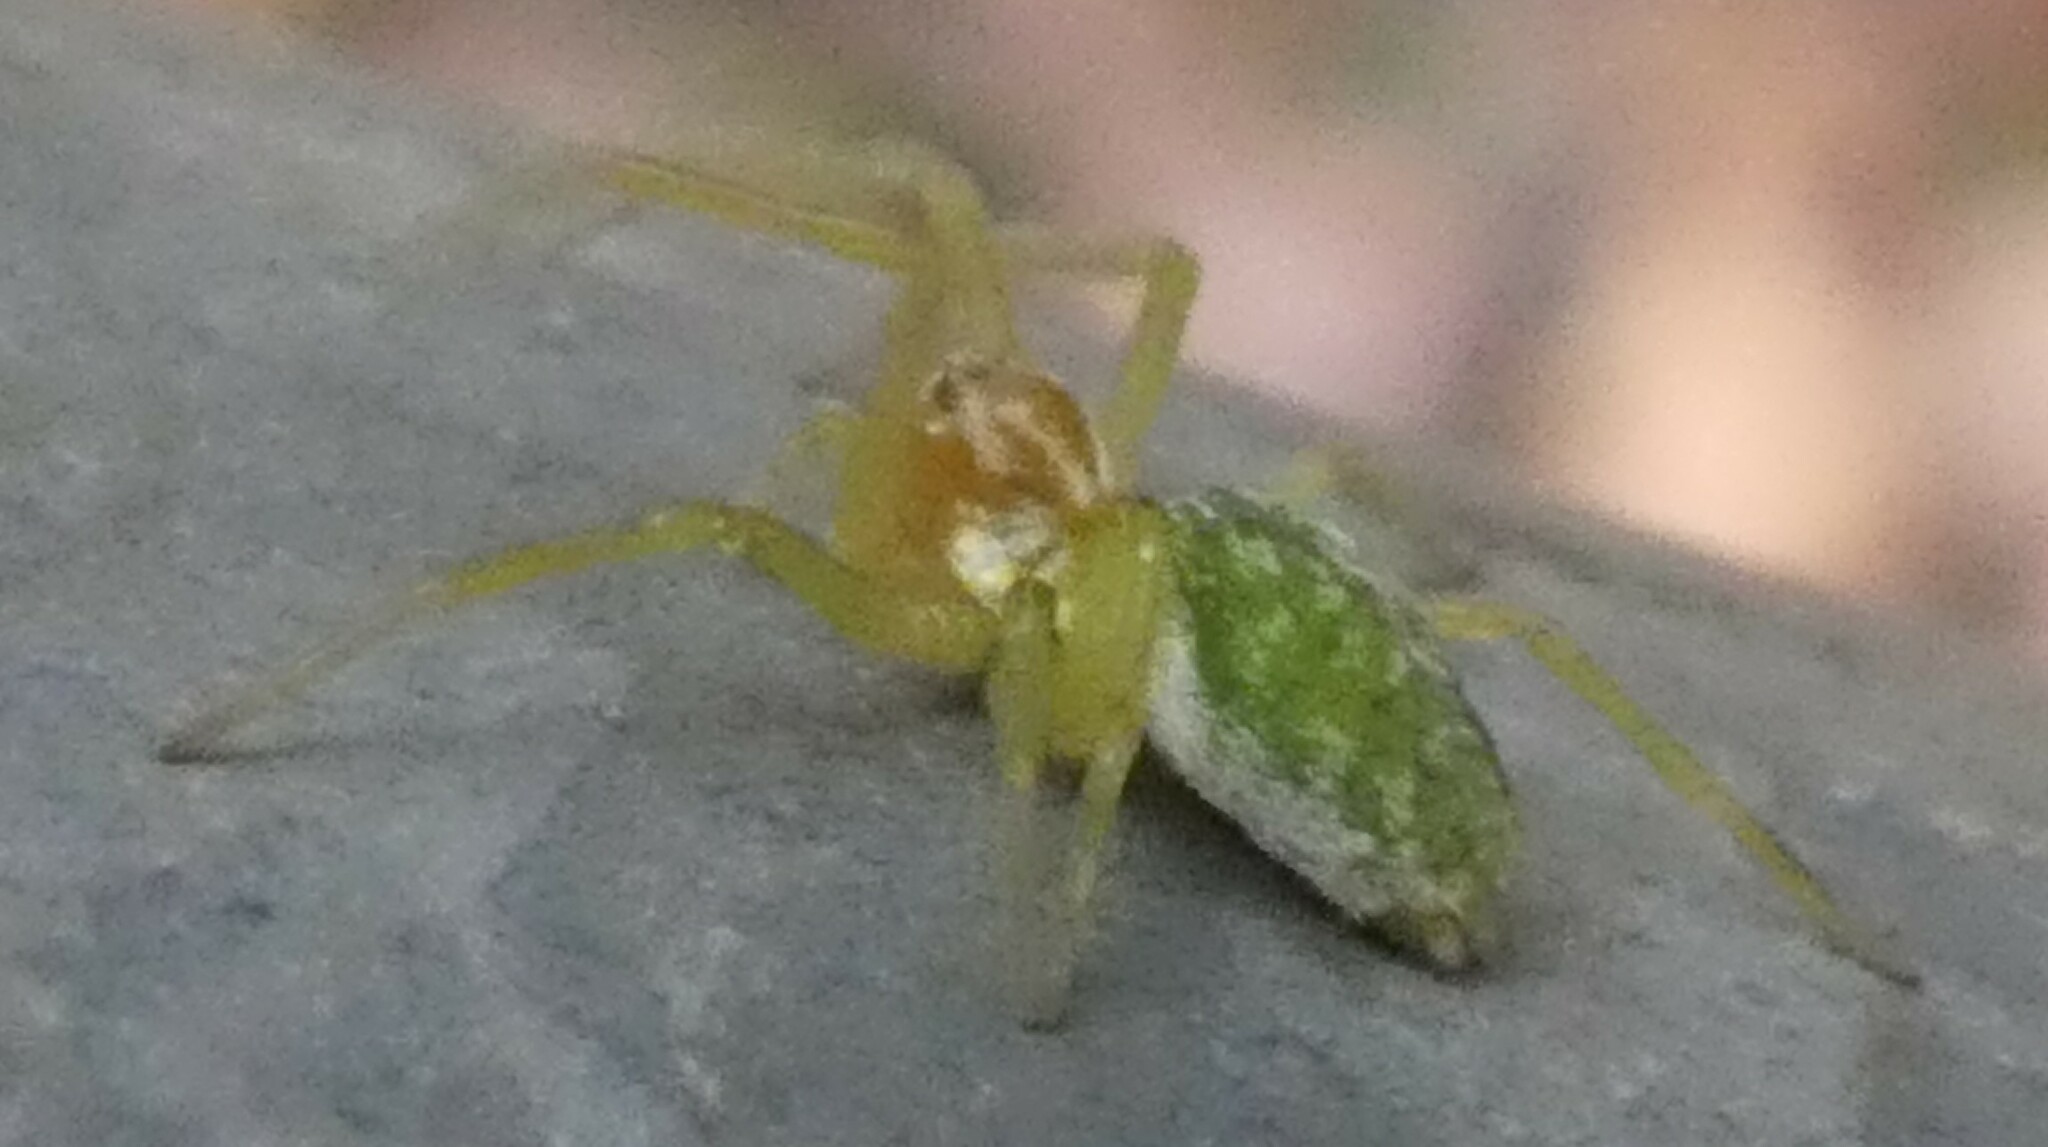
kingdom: Animalia
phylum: Arthropoda
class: Arachnida
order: Araneae
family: Dictynidae
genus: Nigma
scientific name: Nigma walckenaeri
